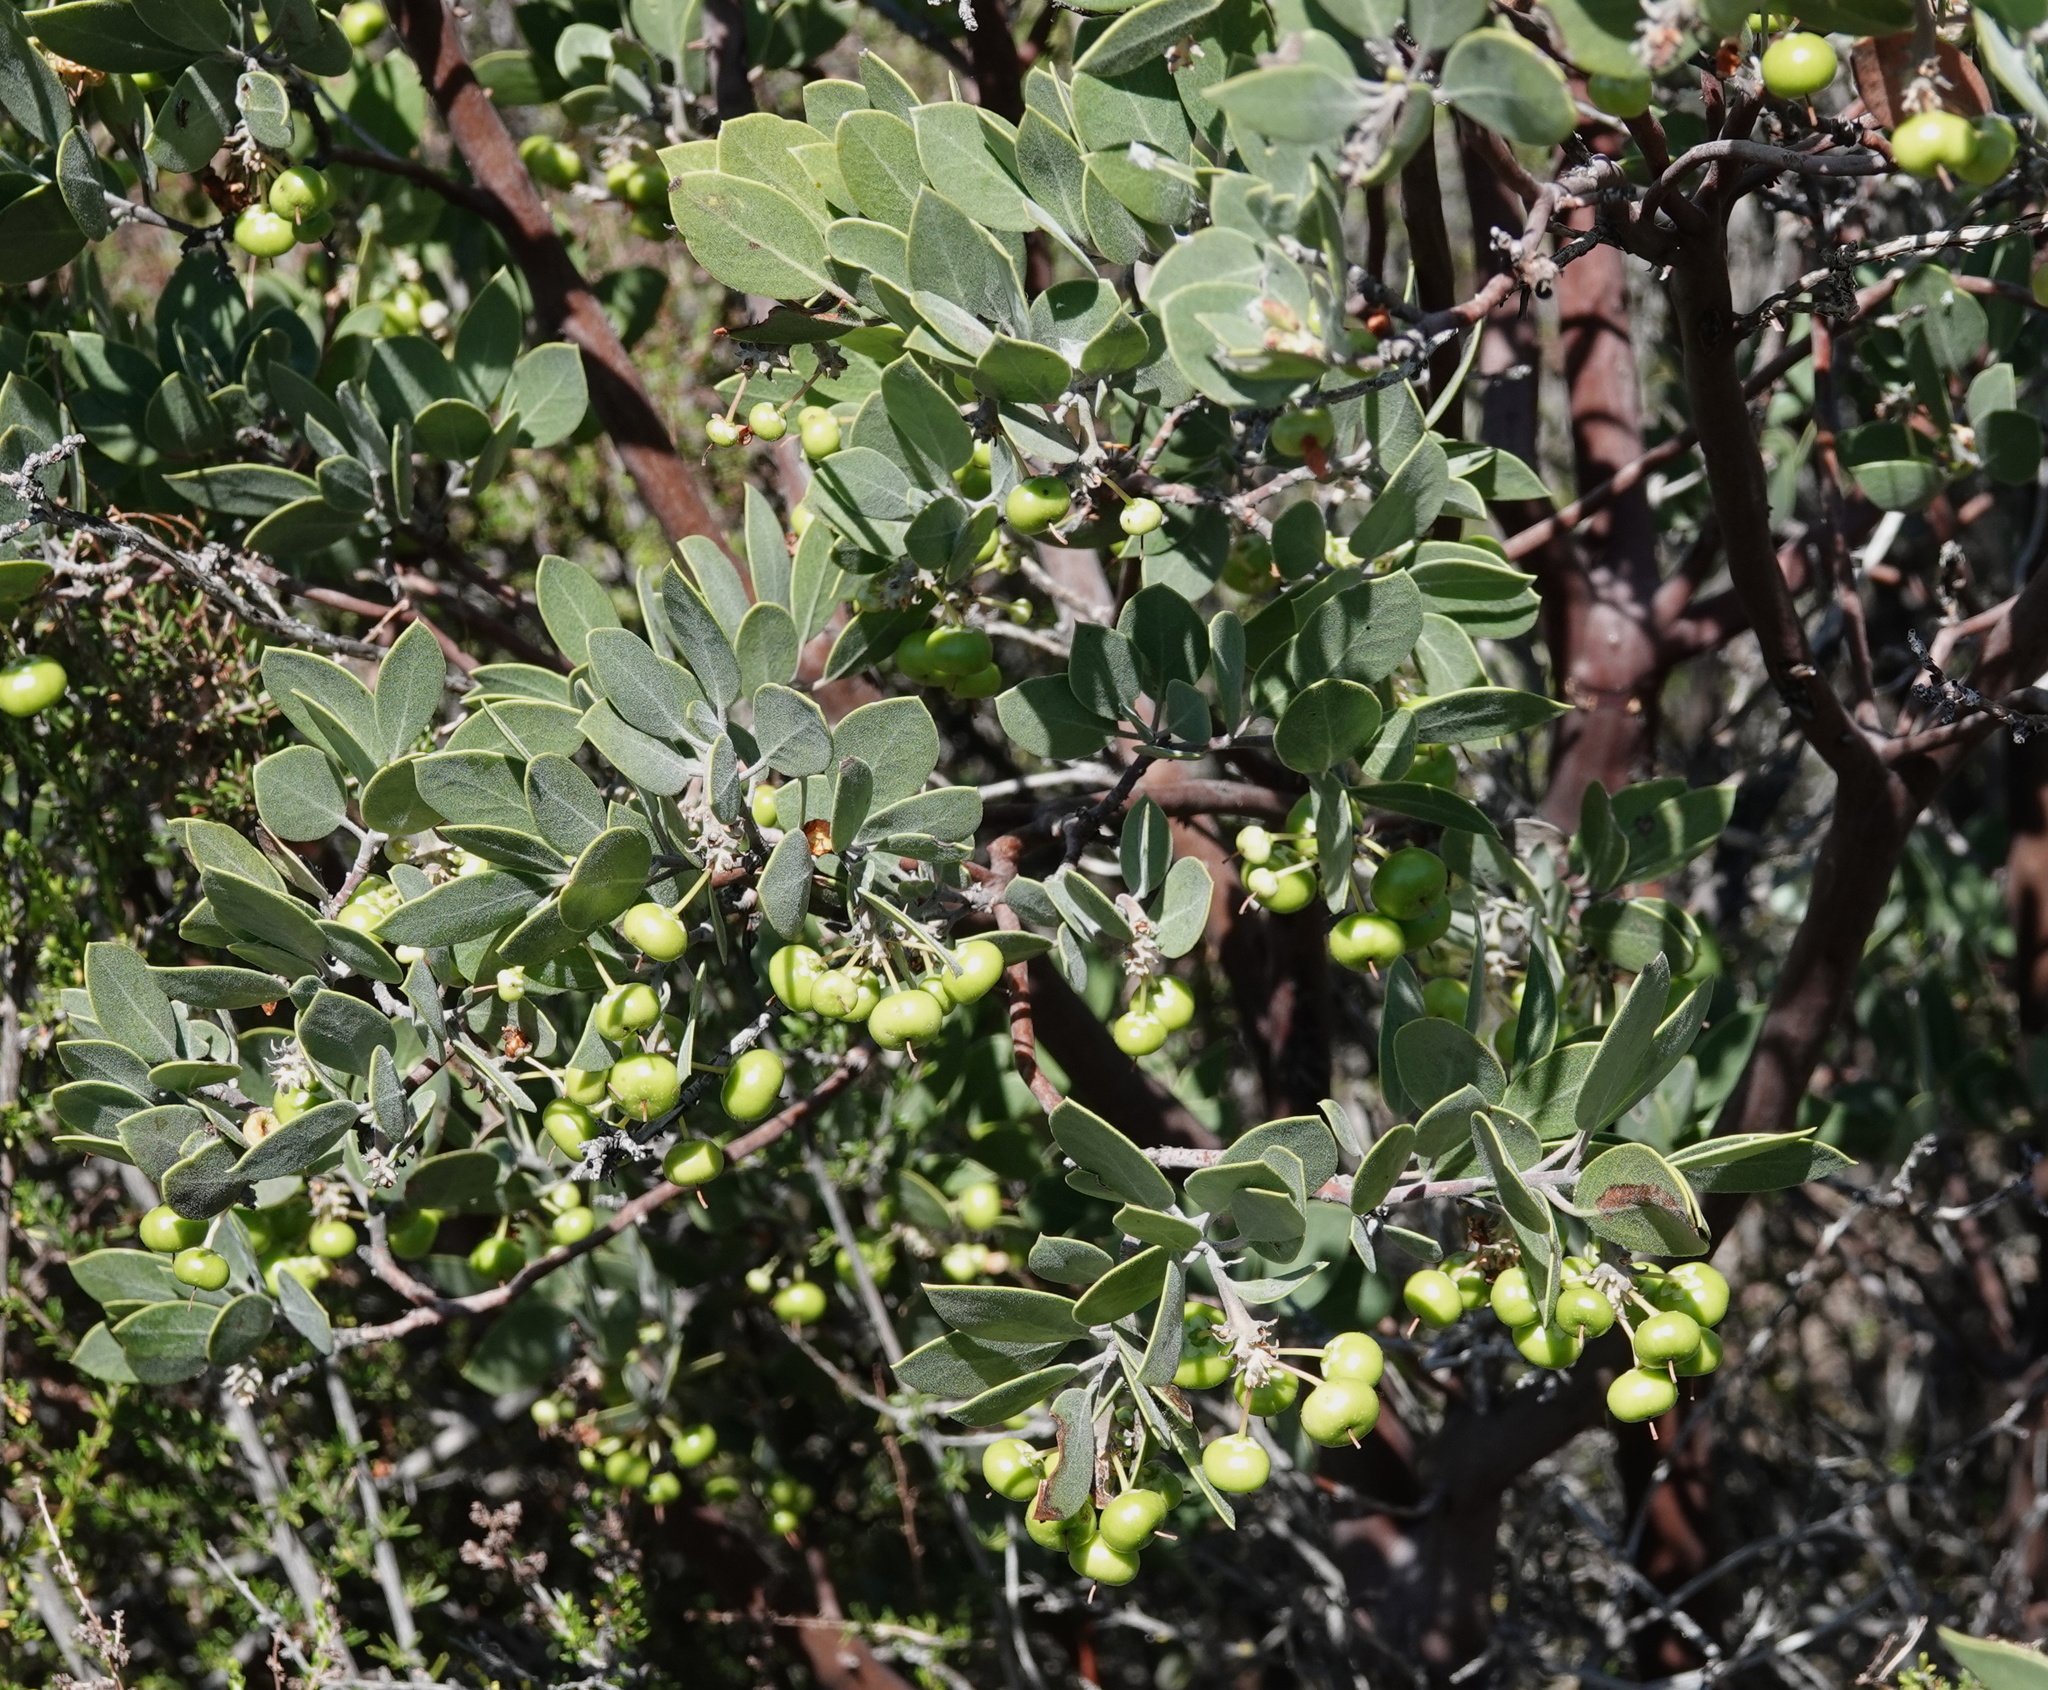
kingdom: Plantae
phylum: Tracheophyta
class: Magnoliopsida
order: Ericales
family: Ericaceae
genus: Arctostaphylos
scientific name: Arctostaphylos pungens
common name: Mexican manzanita
